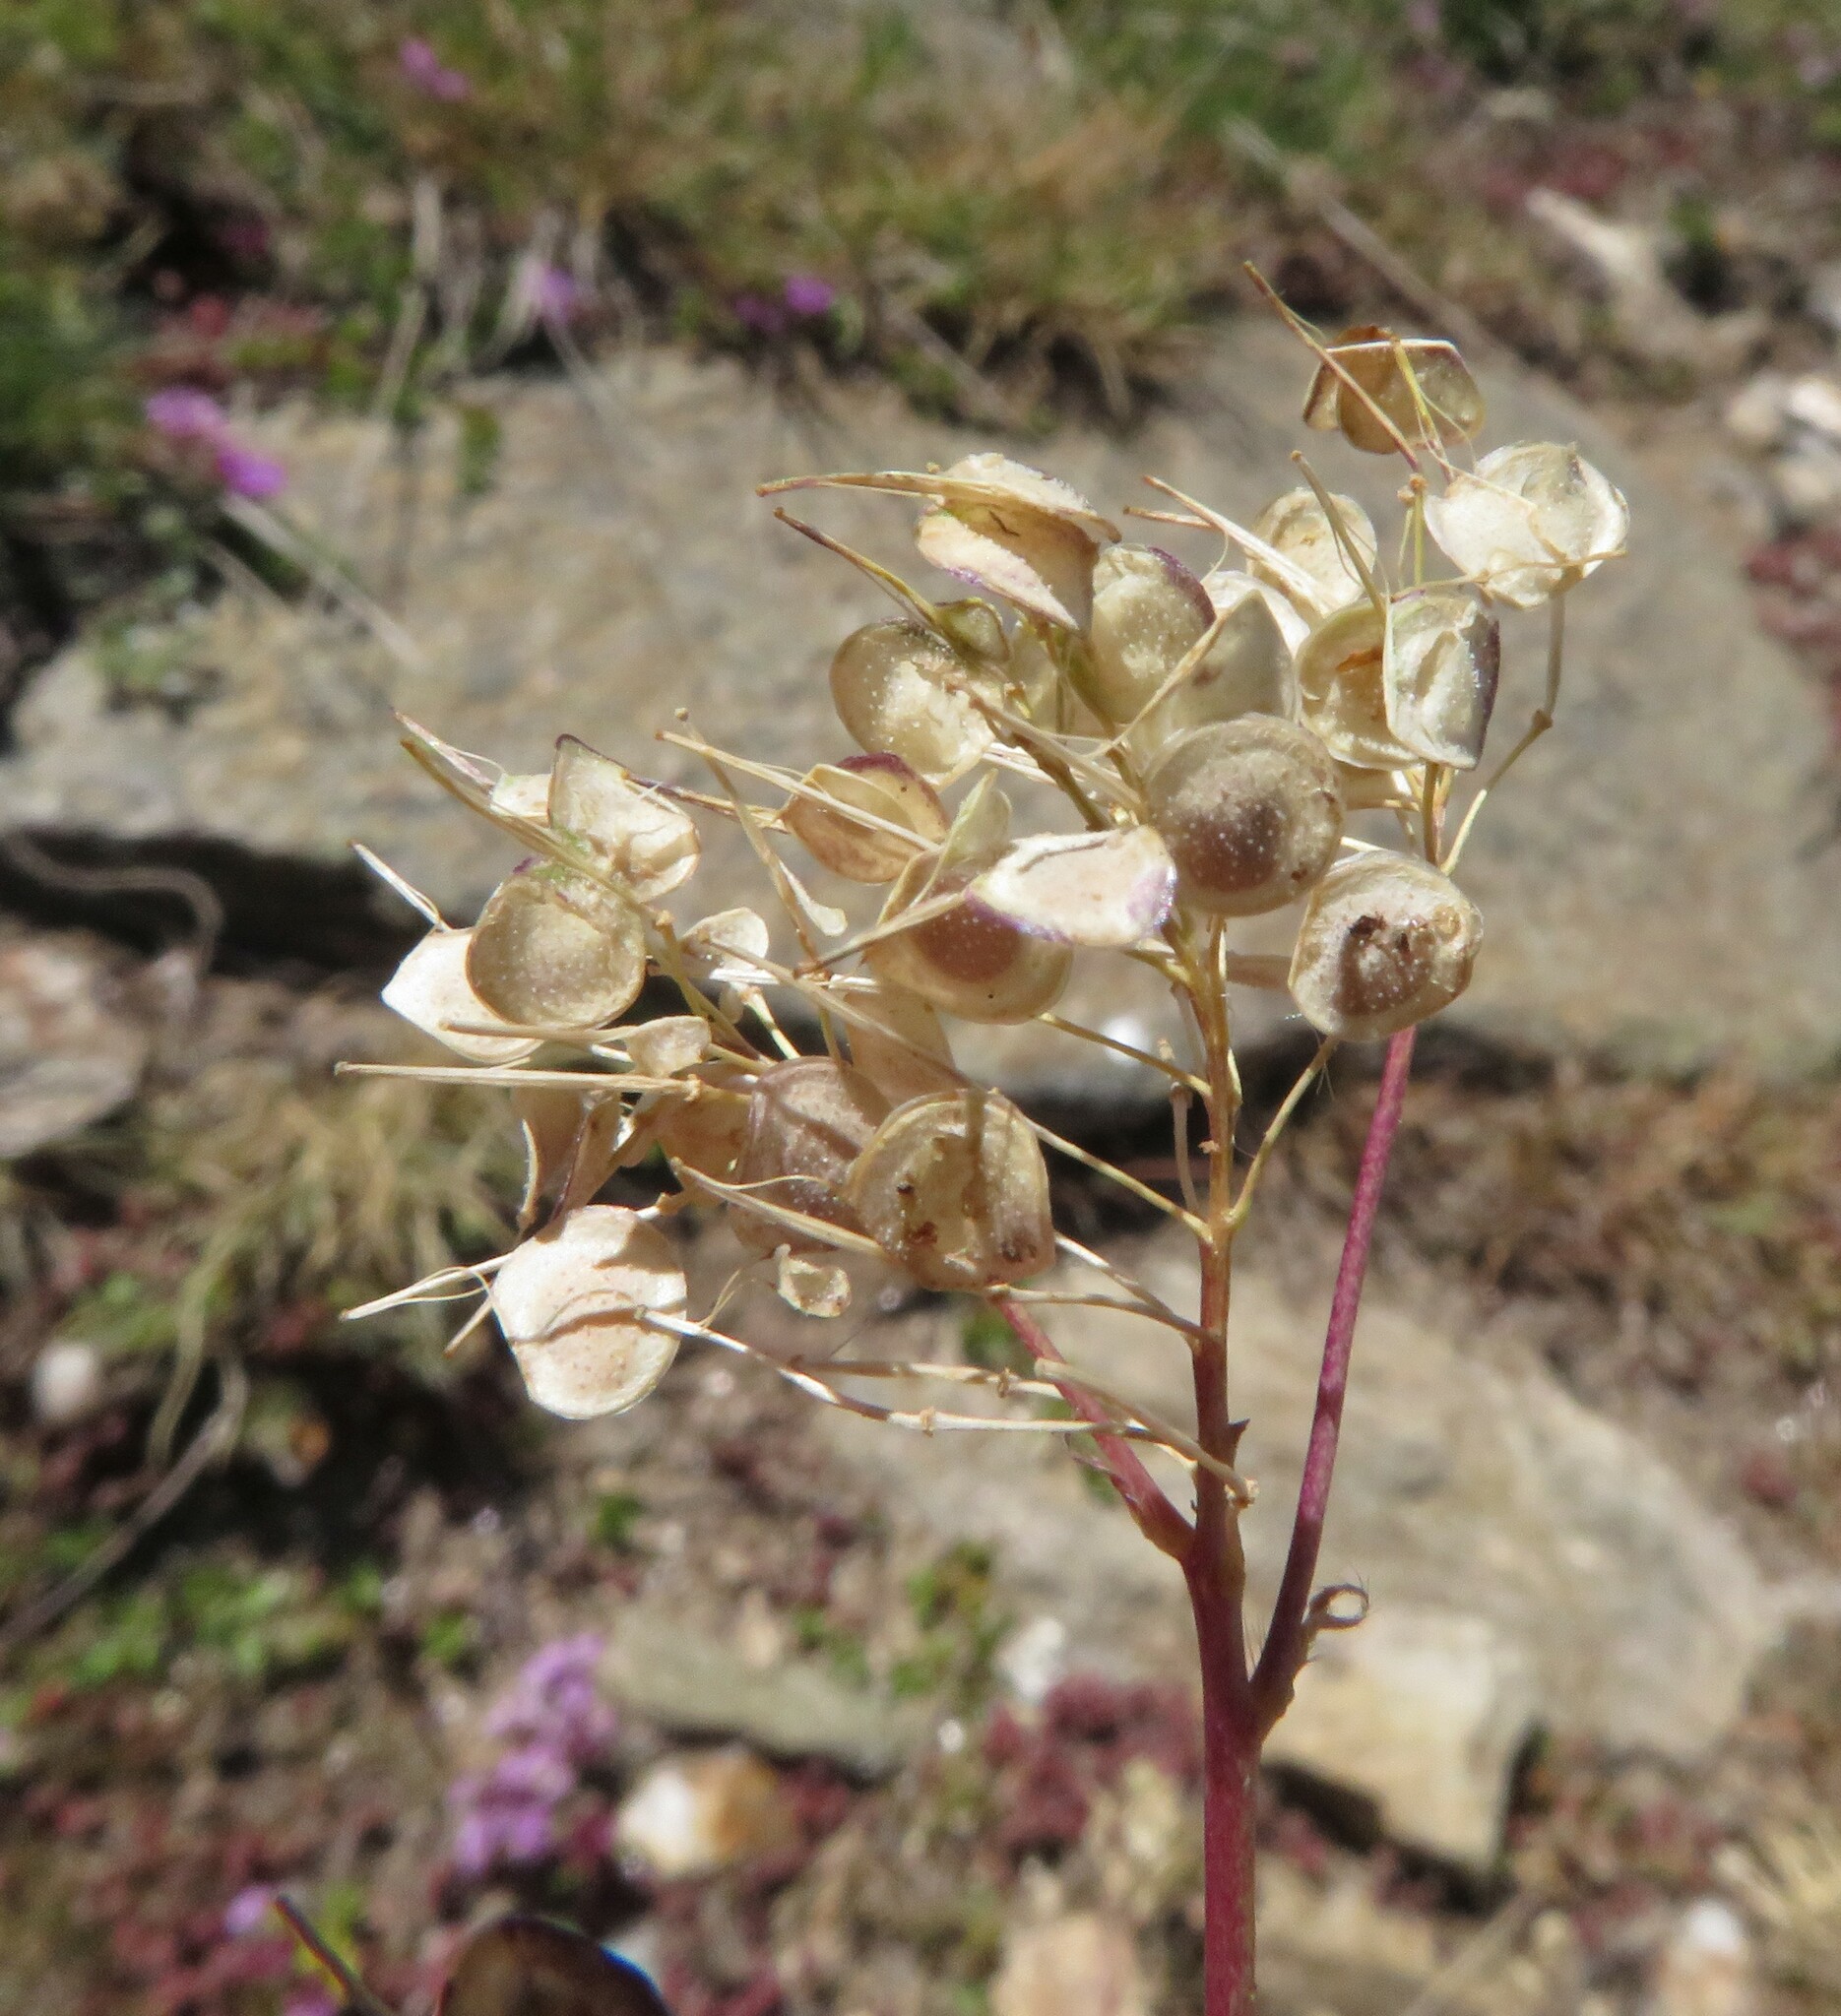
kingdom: Plantae
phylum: Tracheophyta
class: Magnoliopsida
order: Brassicales
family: Brassicaceae
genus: Biscutella
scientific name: Biscutella laevigata
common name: Buckler mustard
